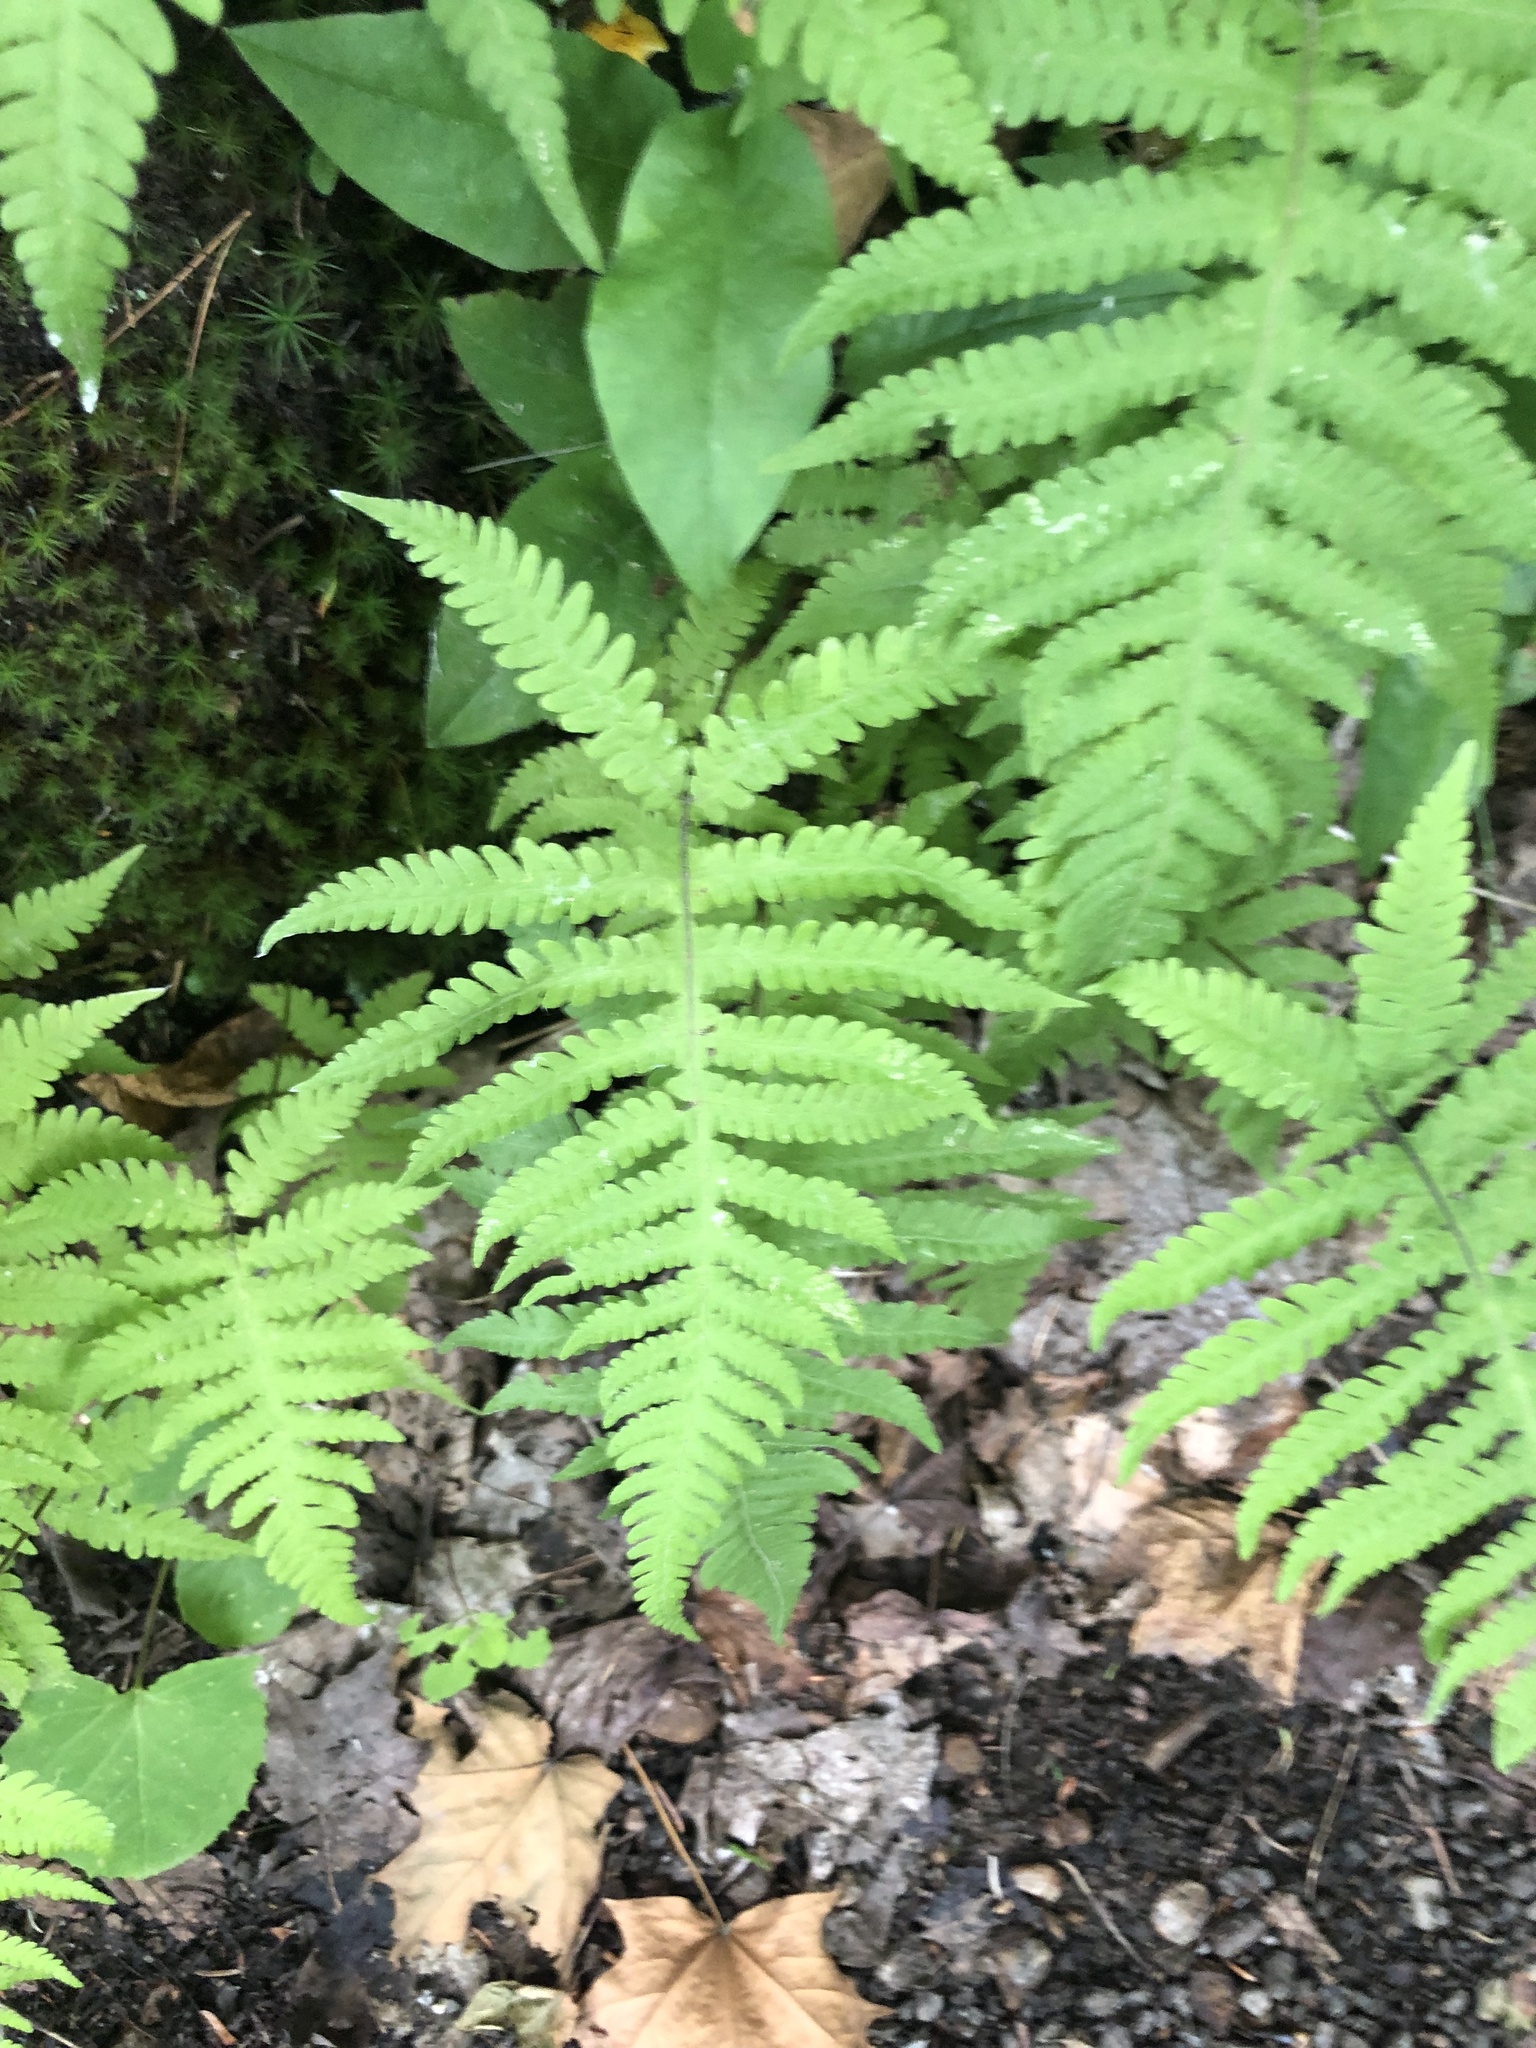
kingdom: Plantae
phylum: Tracheophyta
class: Polypodiopsida
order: Polypodiales
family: Thelypteridaceae
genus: Phegopteris
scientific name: Phegopteris connectilis
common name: Beech fern
